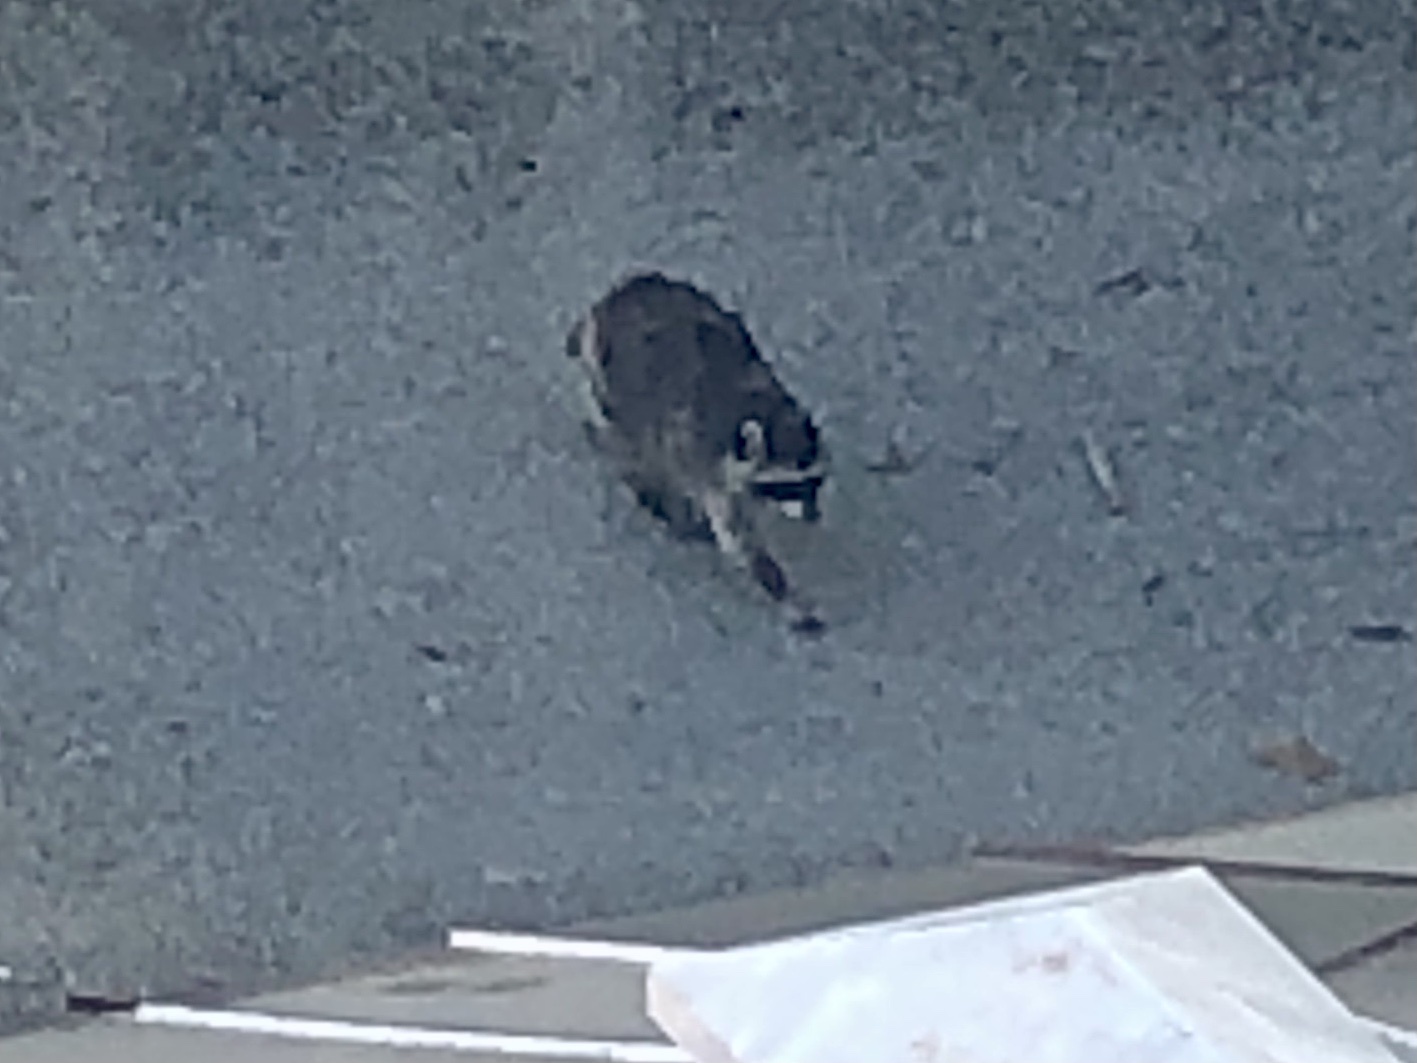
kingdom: Animalia
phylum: Chordata
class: Mammalia
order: Carnivora
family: Procyonidae
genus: Procyon
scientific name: Procyon lotor
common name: Raccoon
